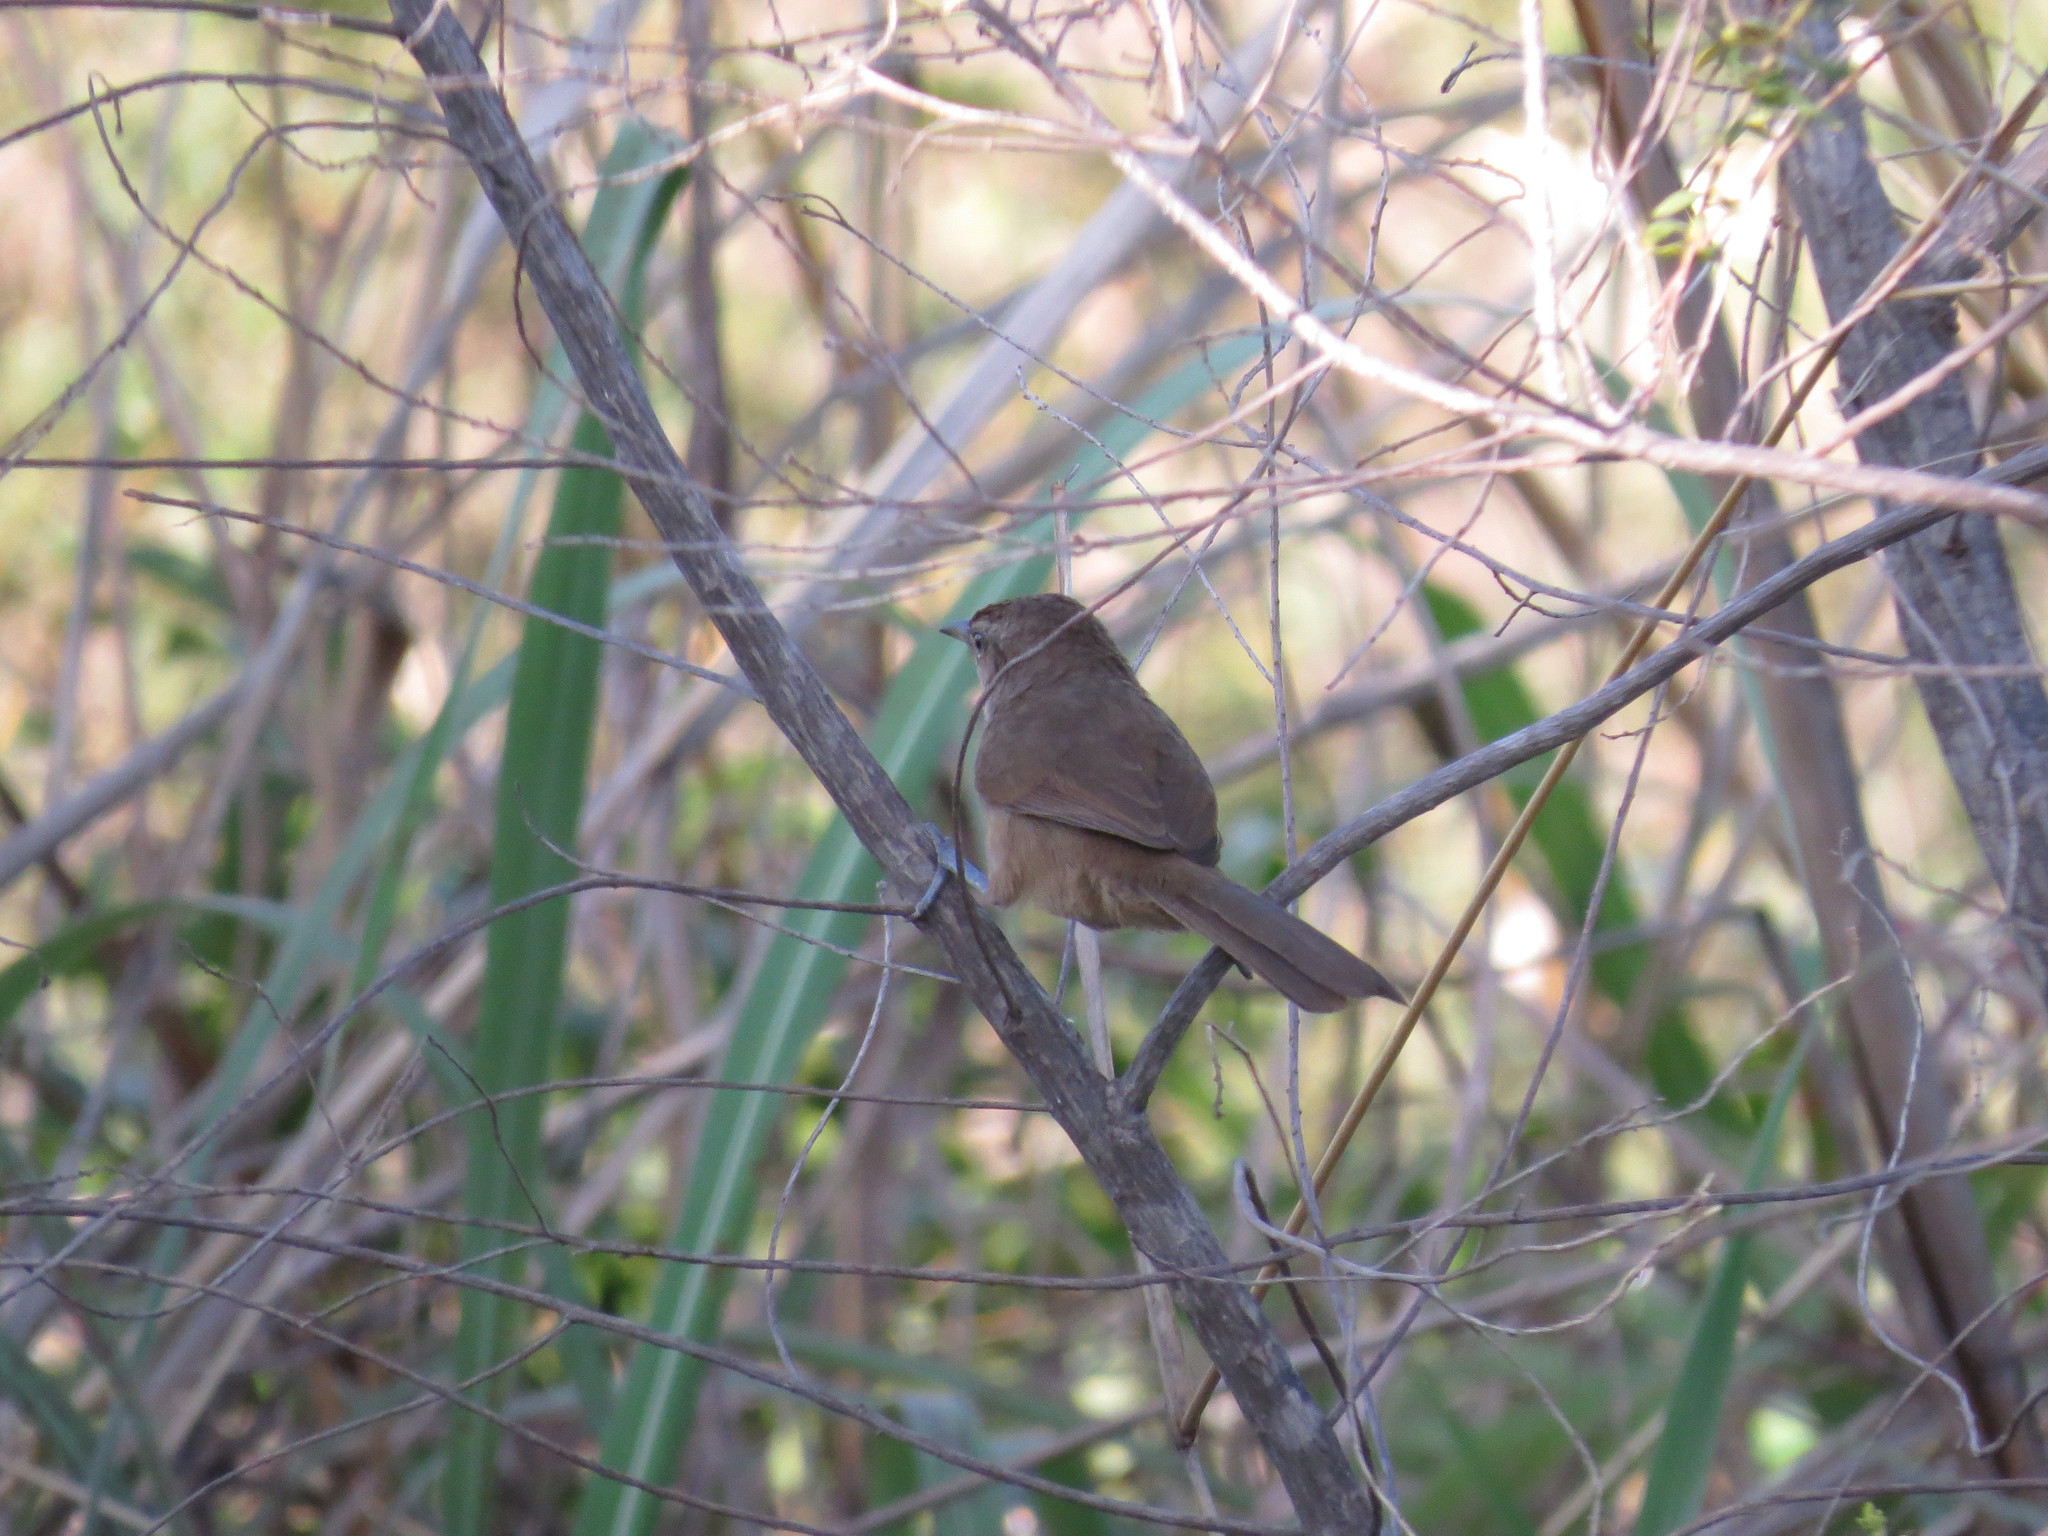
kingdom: Animalia
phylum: Chordata
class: Aves
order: Passeriformes
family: Furnariidae
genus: Phacellodomus
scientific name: Phacellodomus rufifrons
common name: Rufous-fronted thornbird
